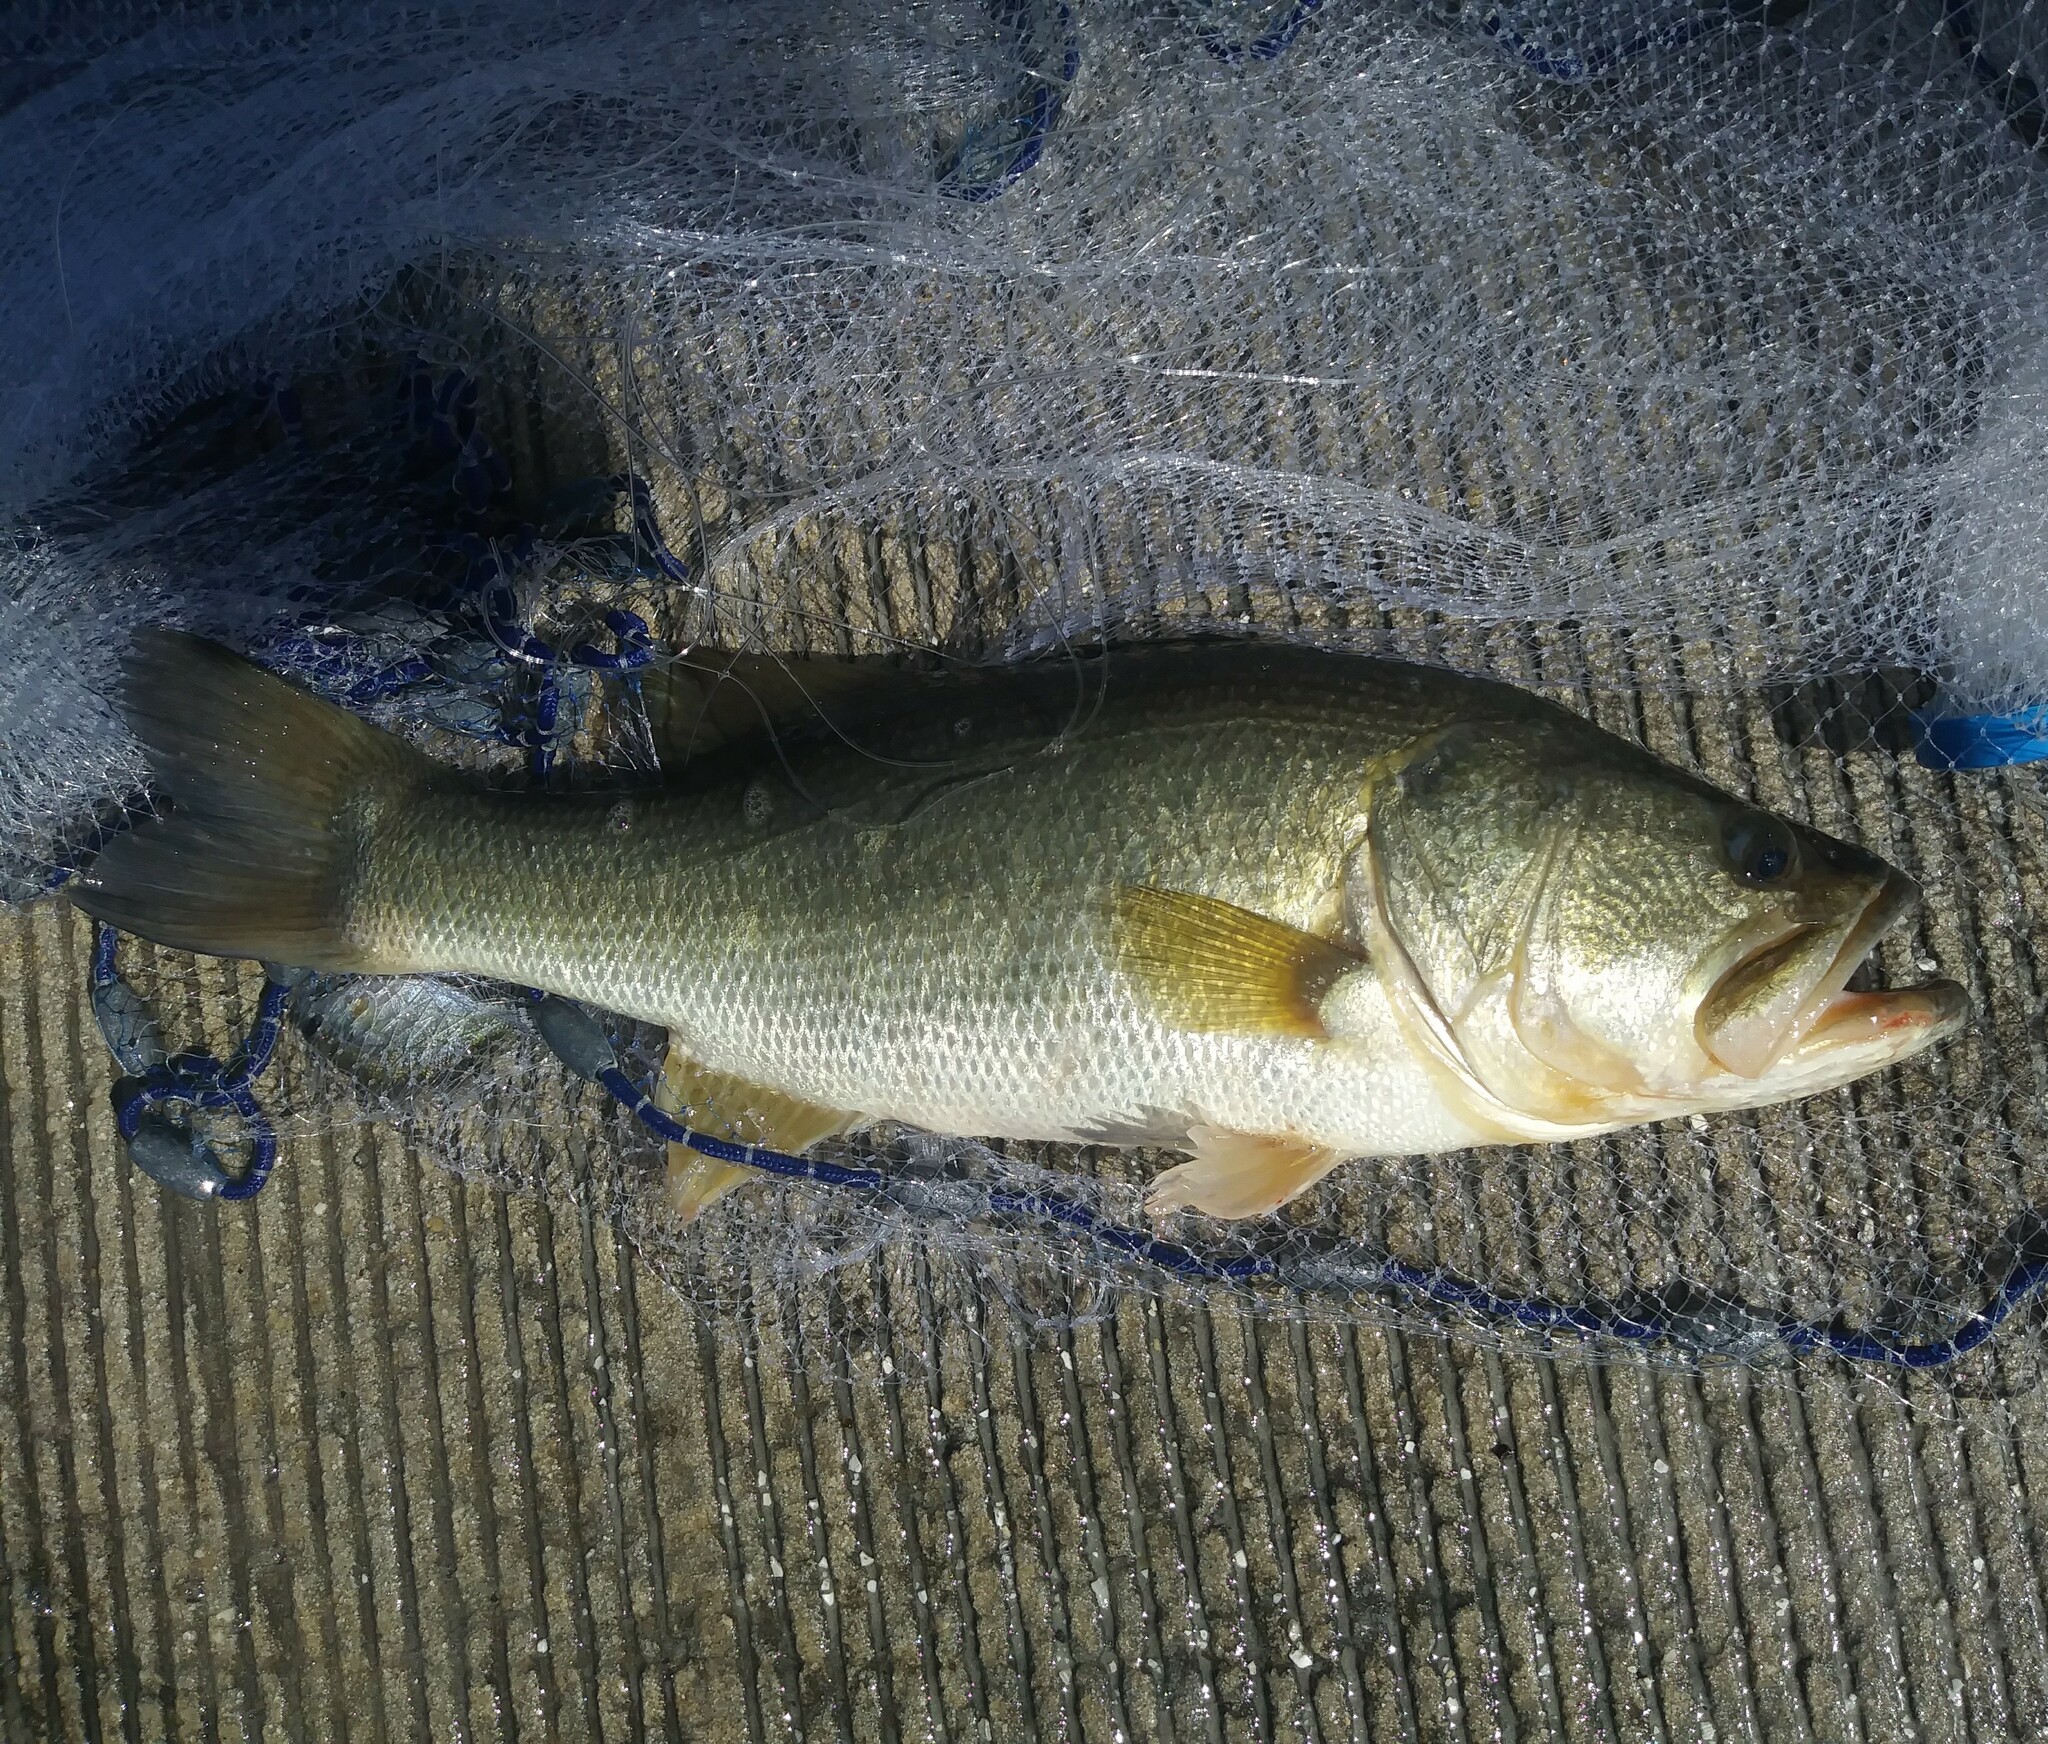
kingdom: Animalia
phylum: Chordata
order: Perciformes
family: Centrarchidae
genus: Micropterus
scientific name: Micropterus salmoides
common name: Largemouth bass
